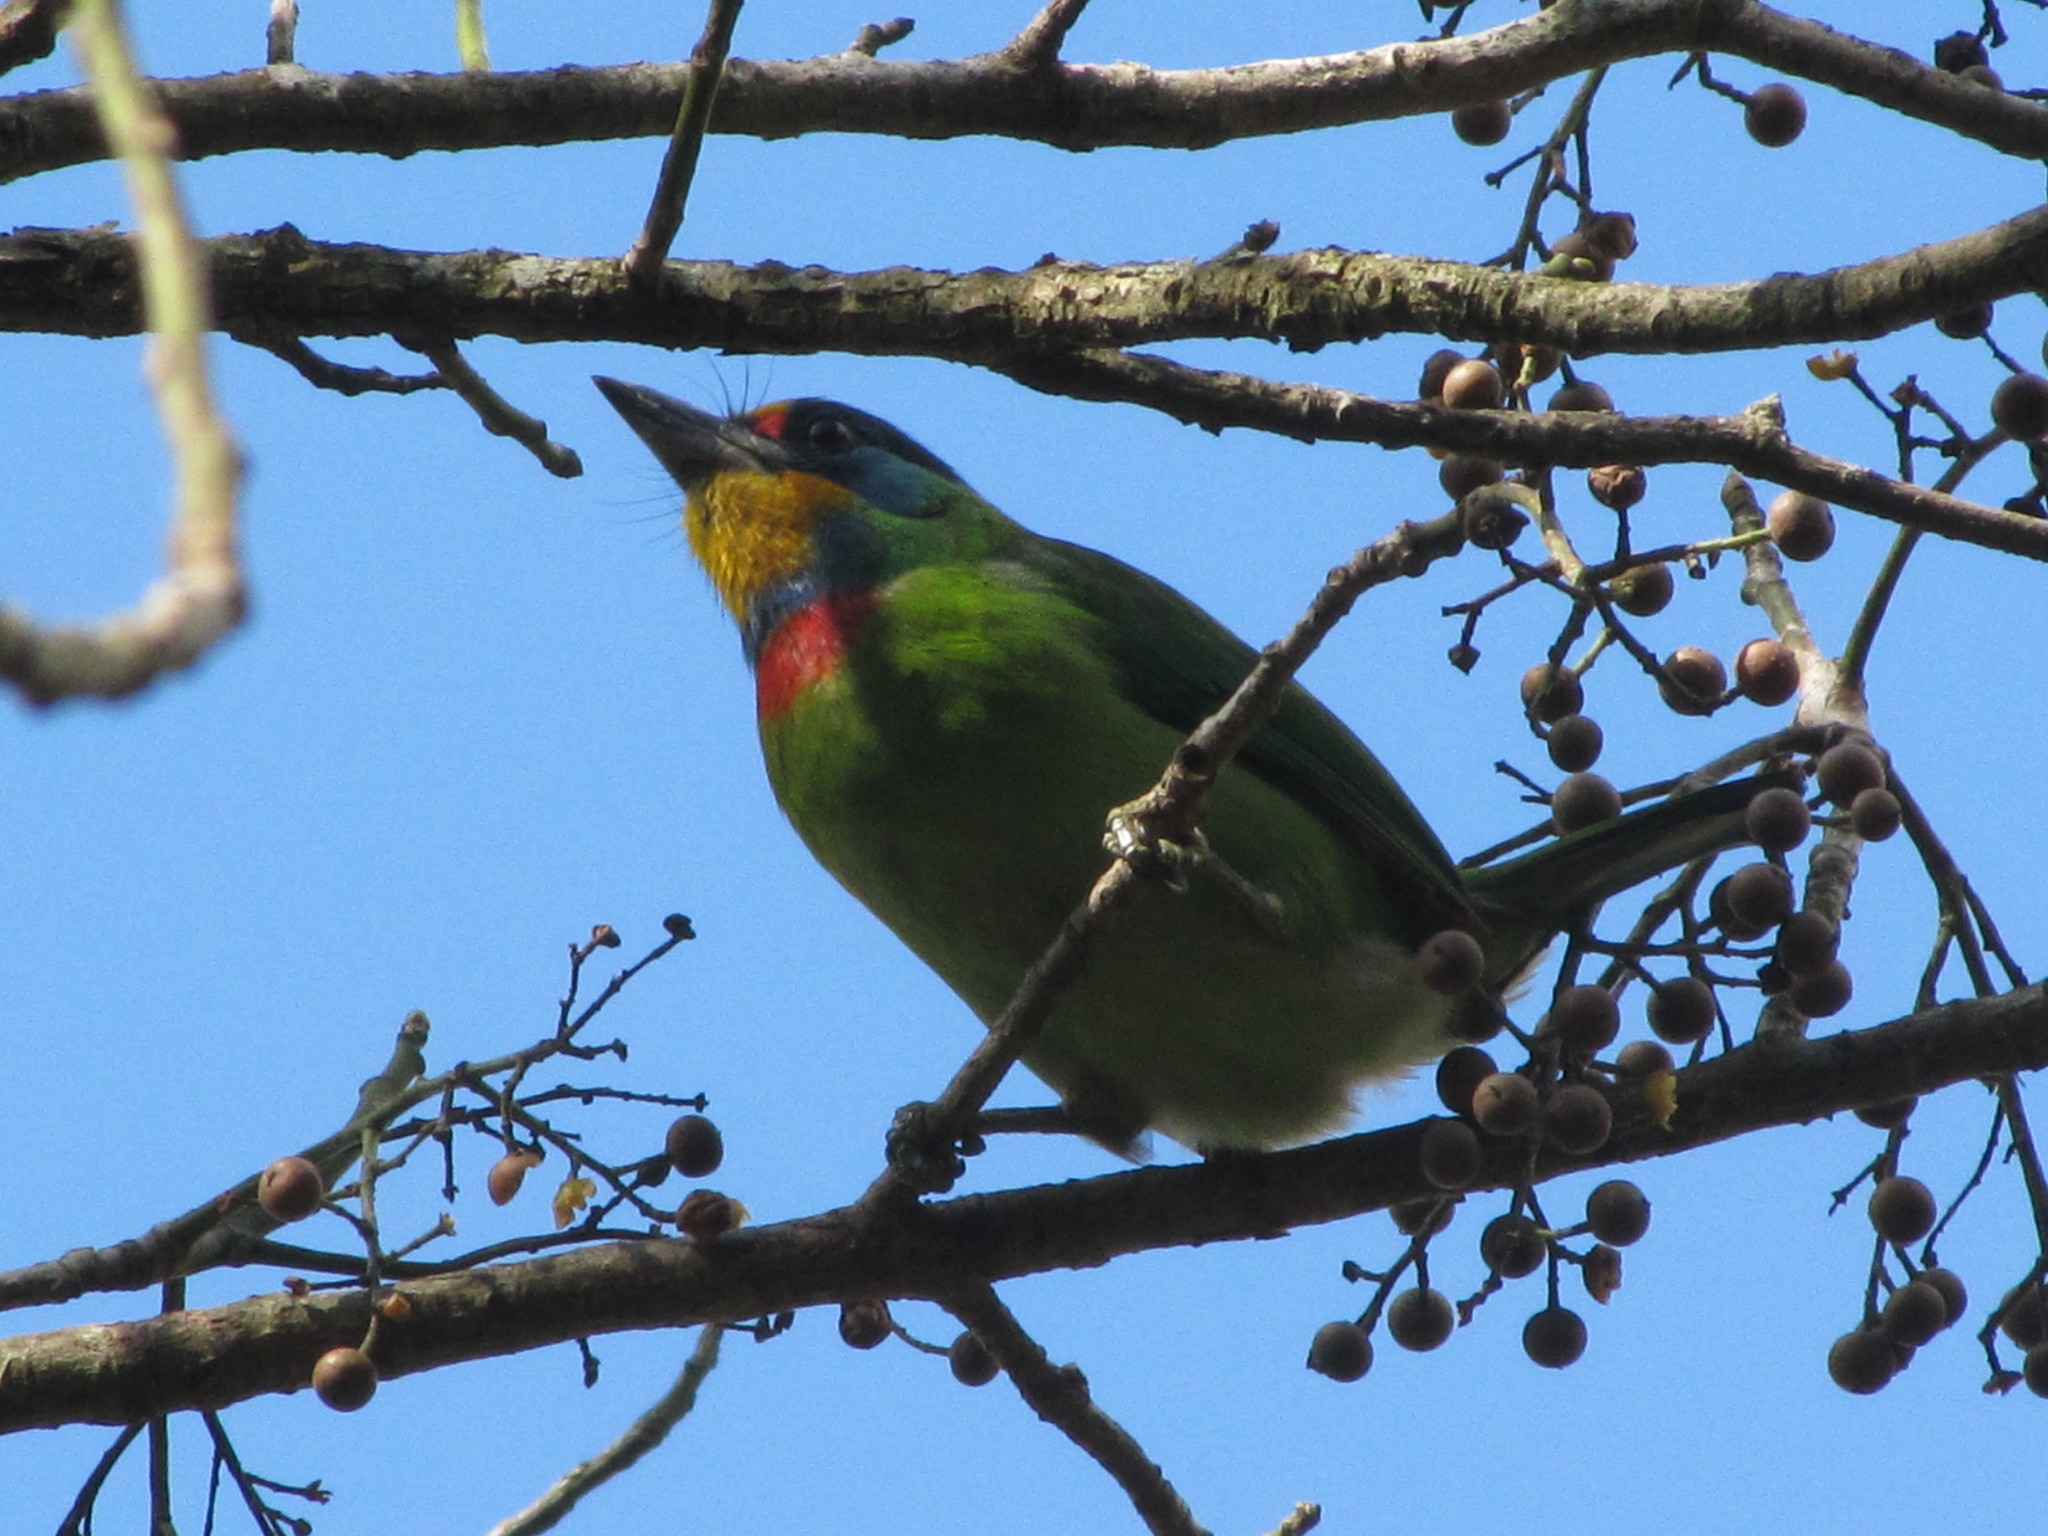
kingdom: Animalia
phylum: Chordata
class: Aves
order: Piciformes
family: Megalaimidae
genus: Psilopogon
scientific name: Psilopogon nuchalis
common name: Taiwan barbet
